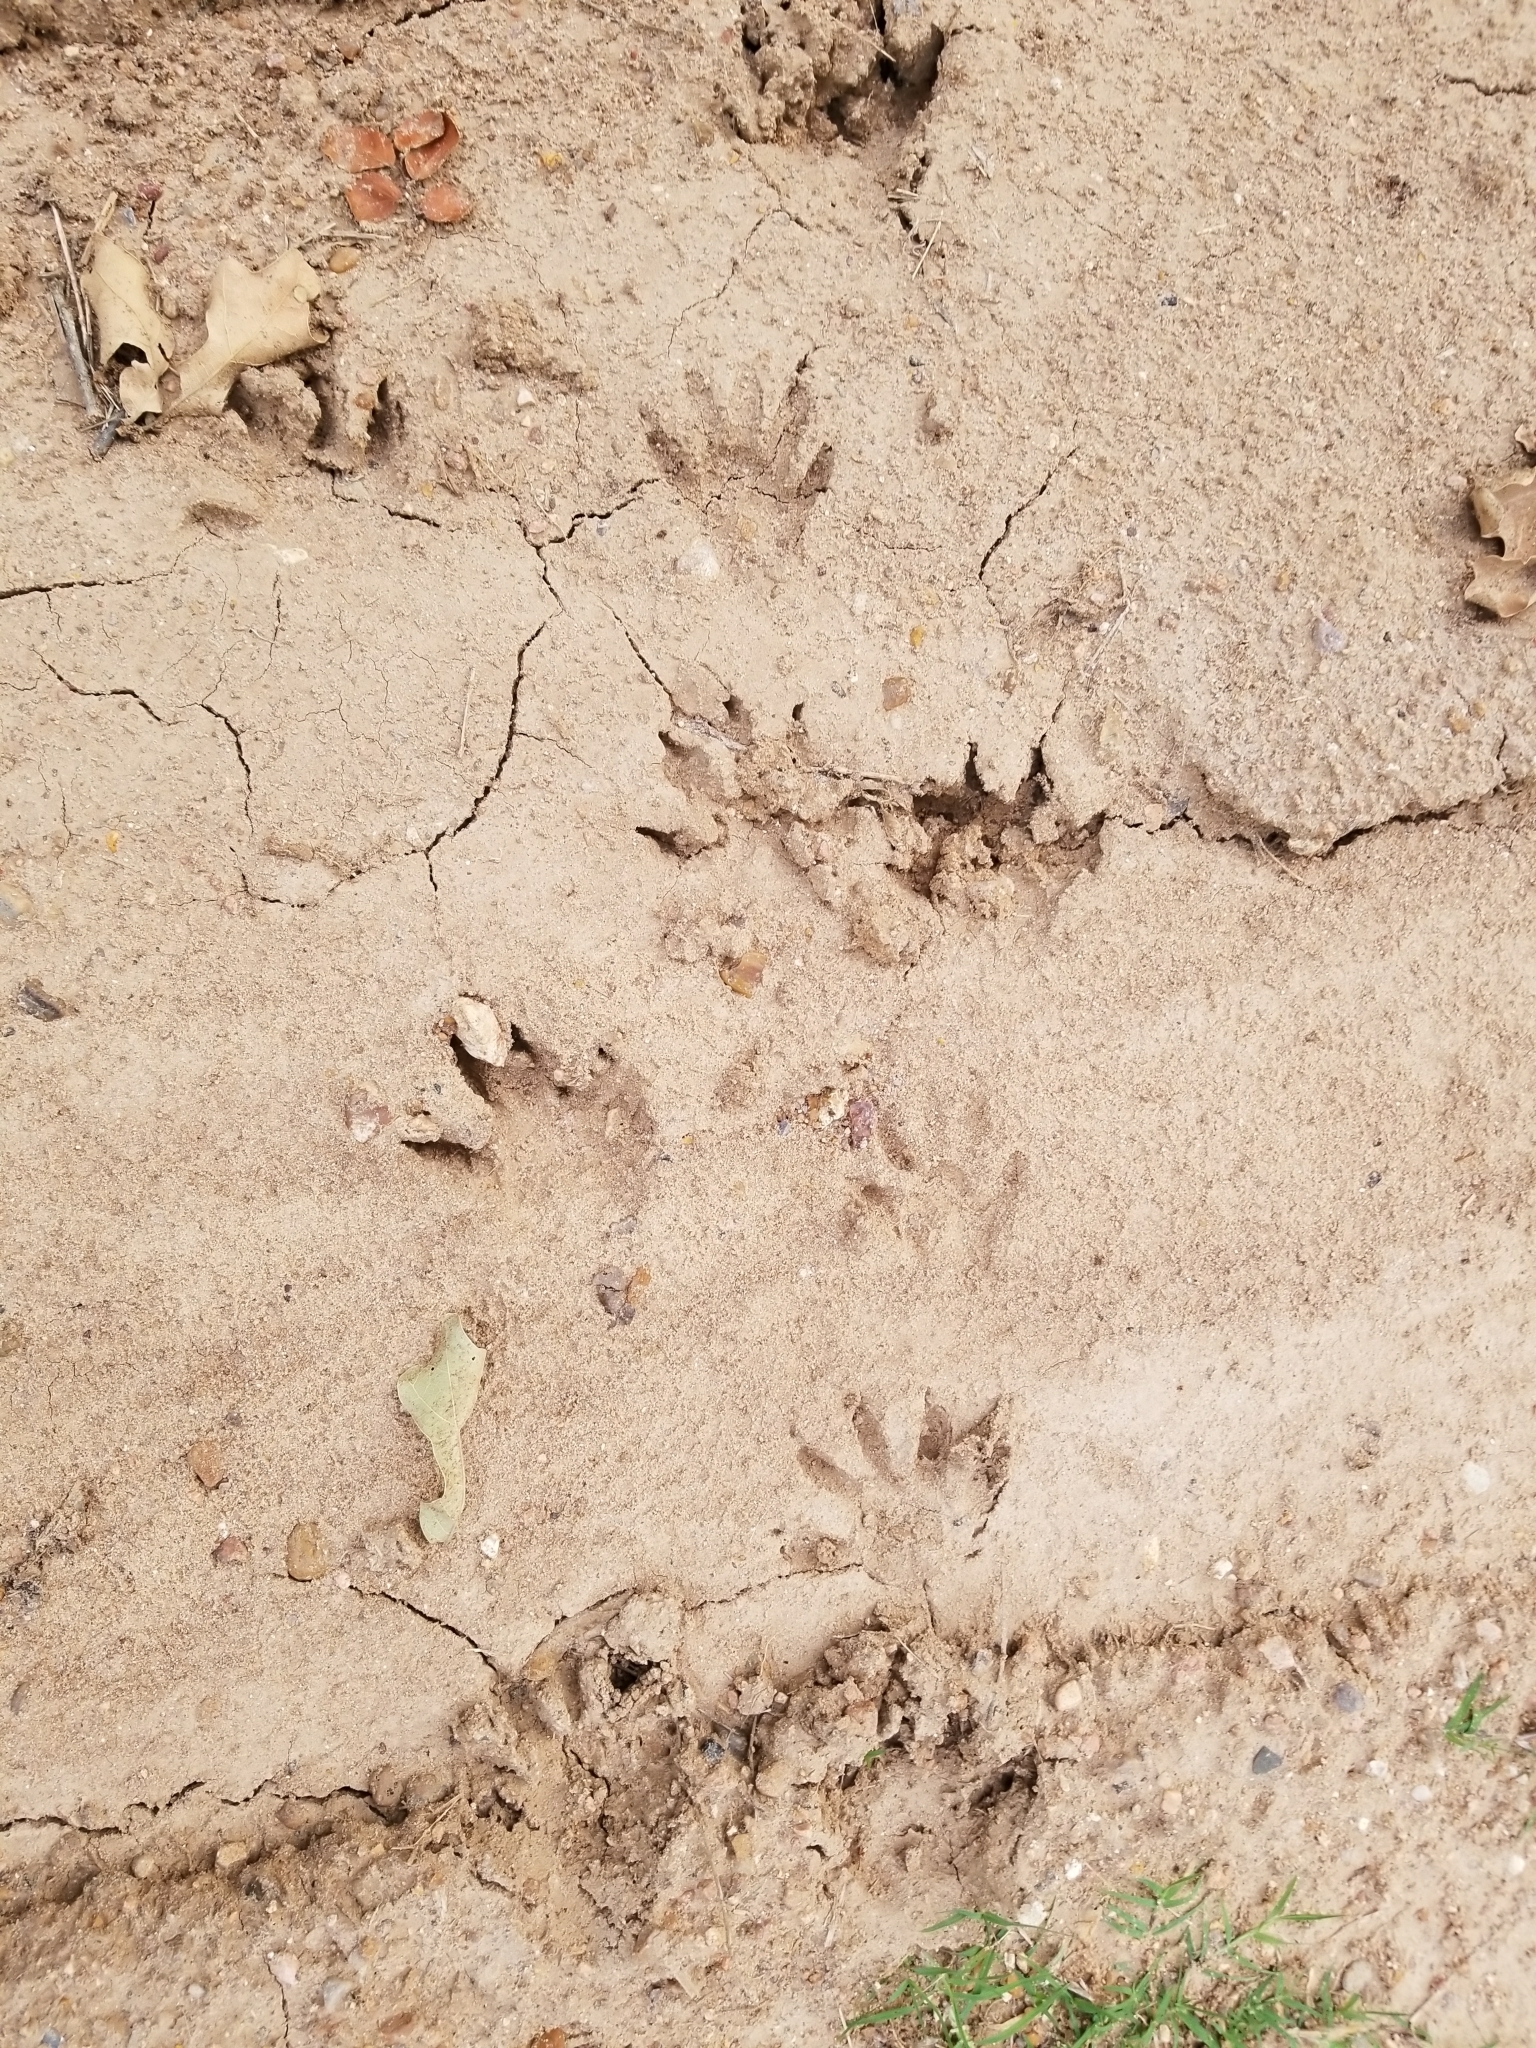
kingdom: Animalia
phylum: Chordata
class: Mammalia
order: Carnivora
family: Procyonidae
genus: Procyon
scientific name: Procyon lotor
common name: Raccoon
